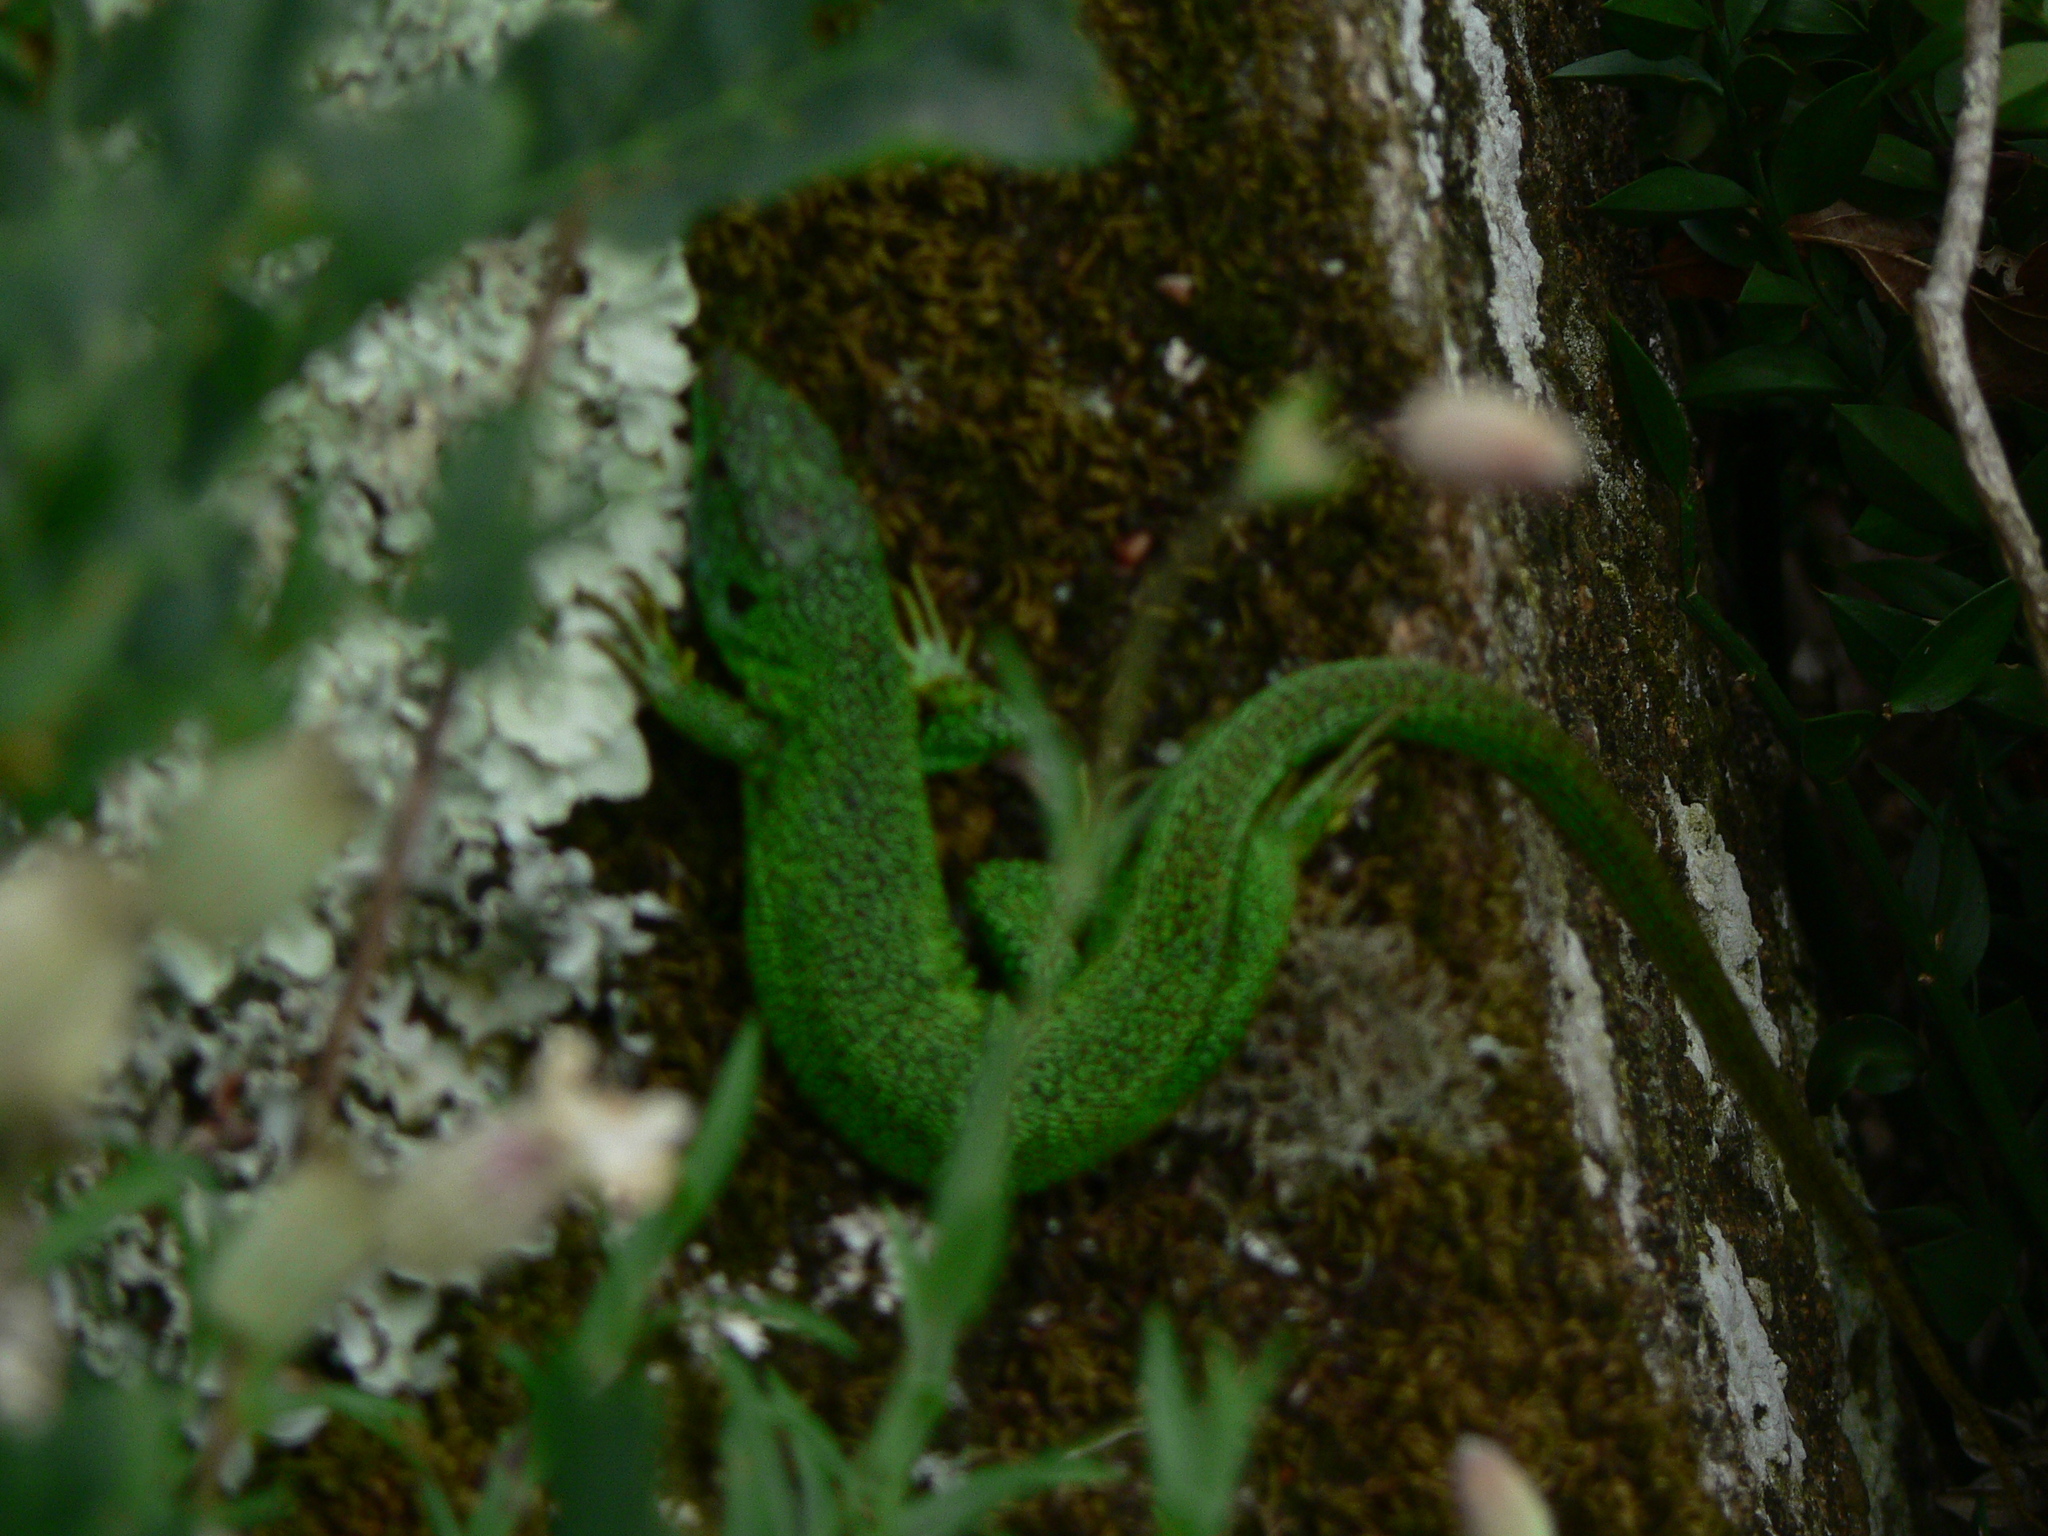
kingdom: Animalia
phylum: Chordata
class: Squamata
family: Lacertidae
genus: Lacerta
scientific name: Lacerta bilineata
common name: Western green lizard
